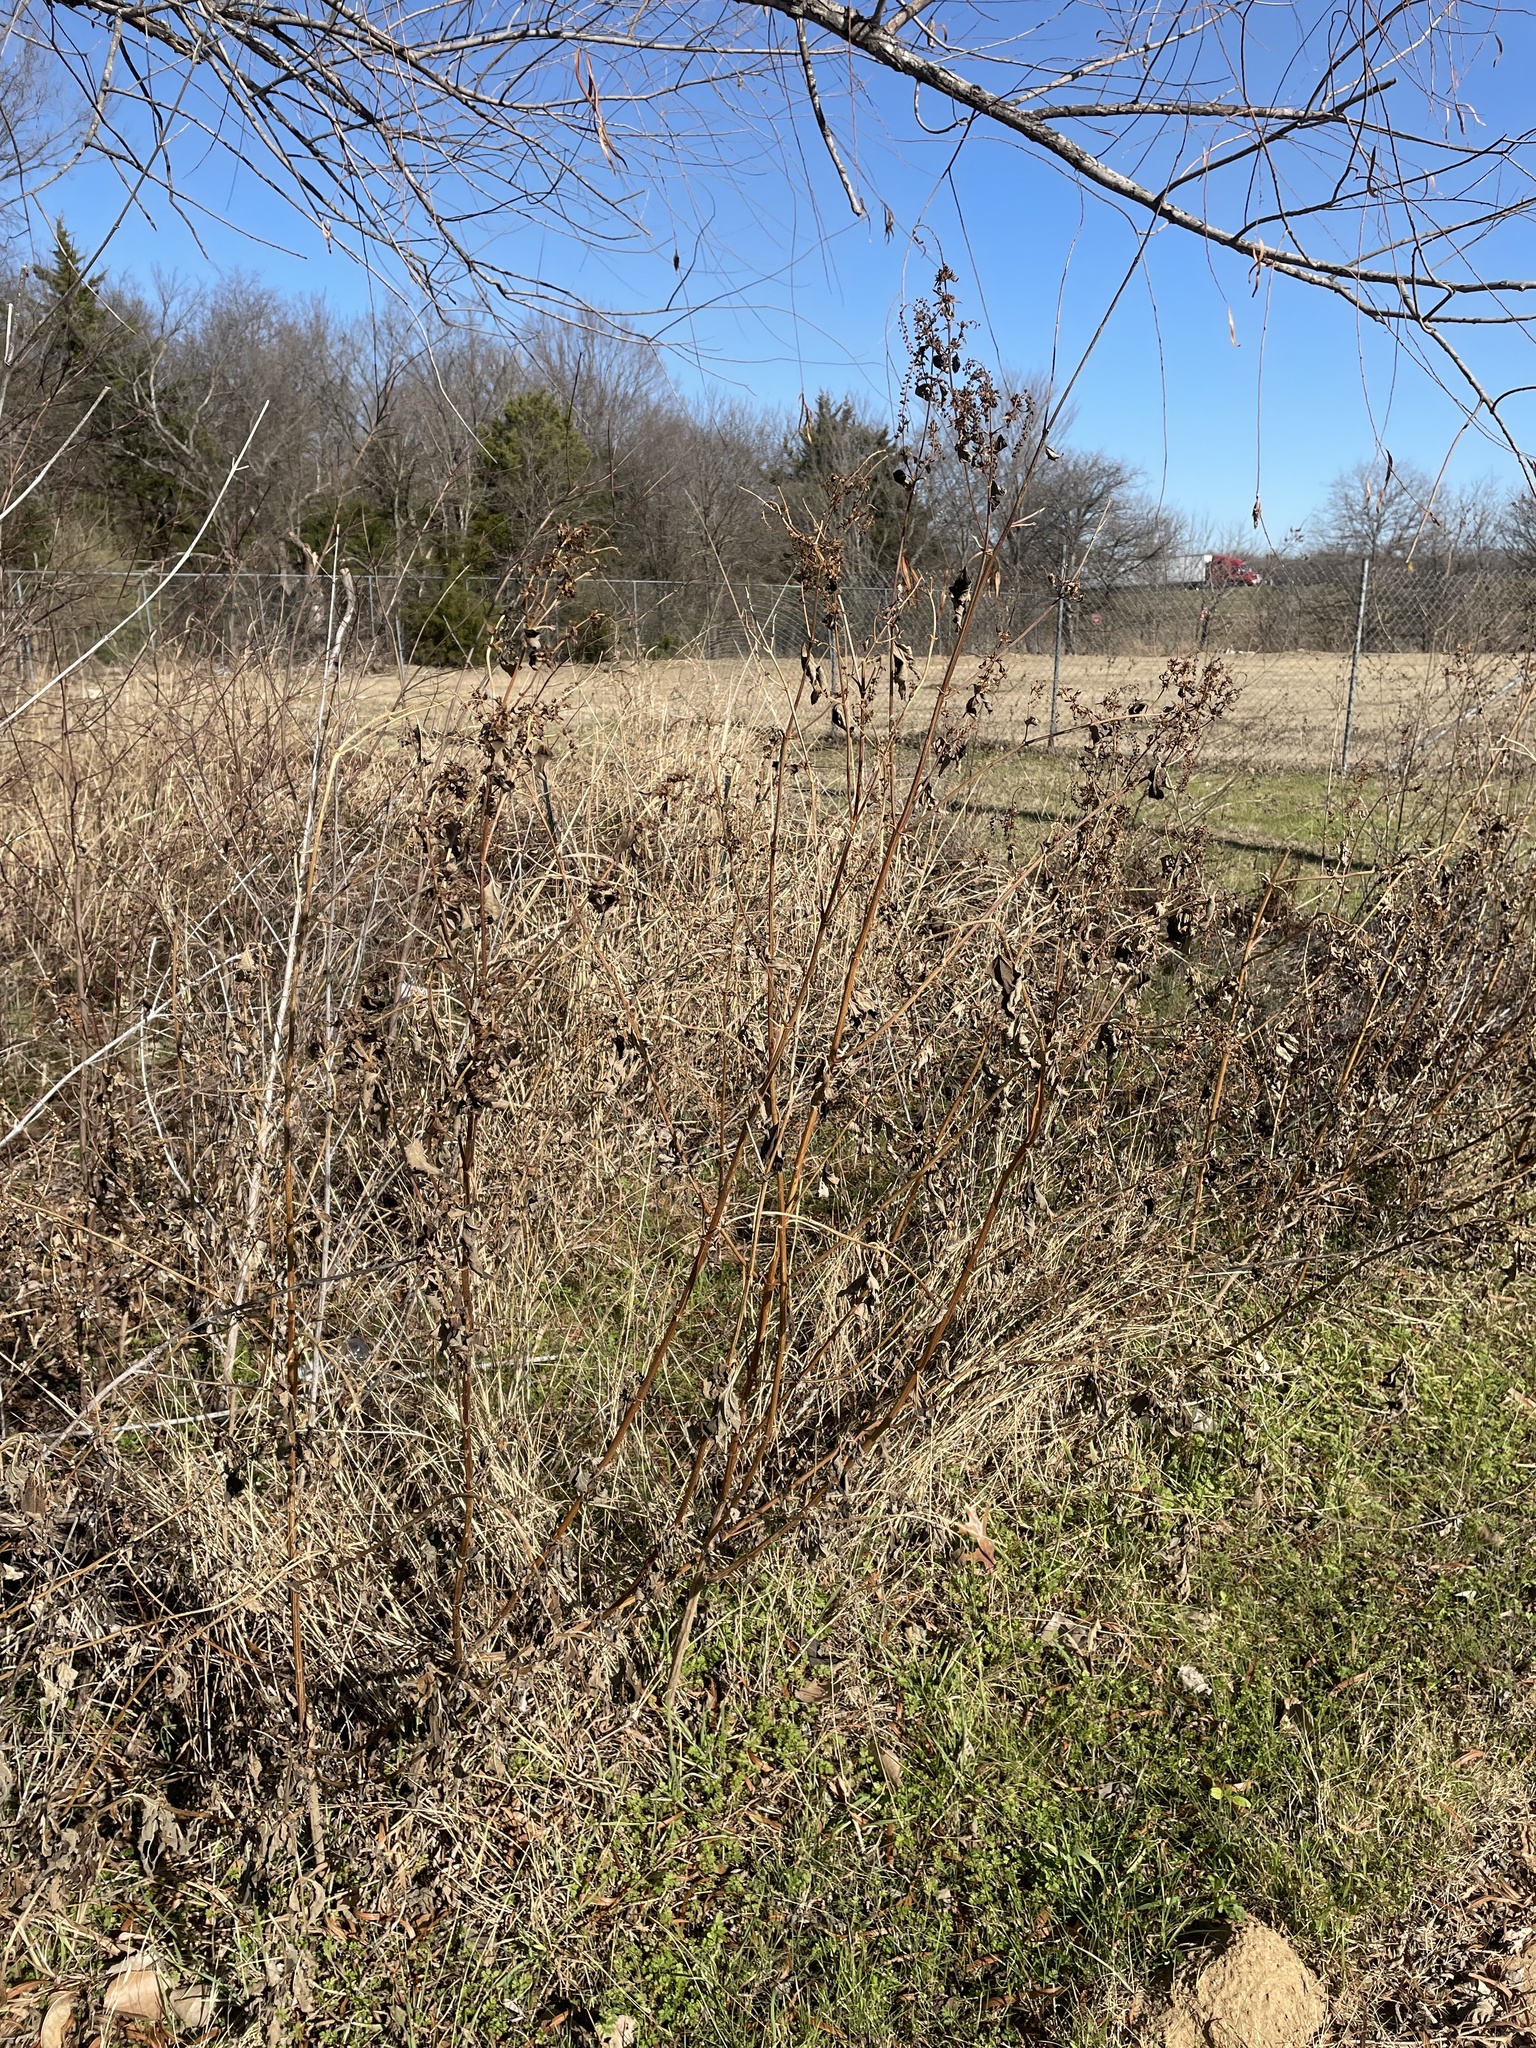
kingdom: Plantae
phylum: Tracheophyta
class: Magnoliopsida
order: Asterales
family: Asteraceae
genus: Ambrosia
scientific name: Ambrosia trifida
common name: Giant ragweed
